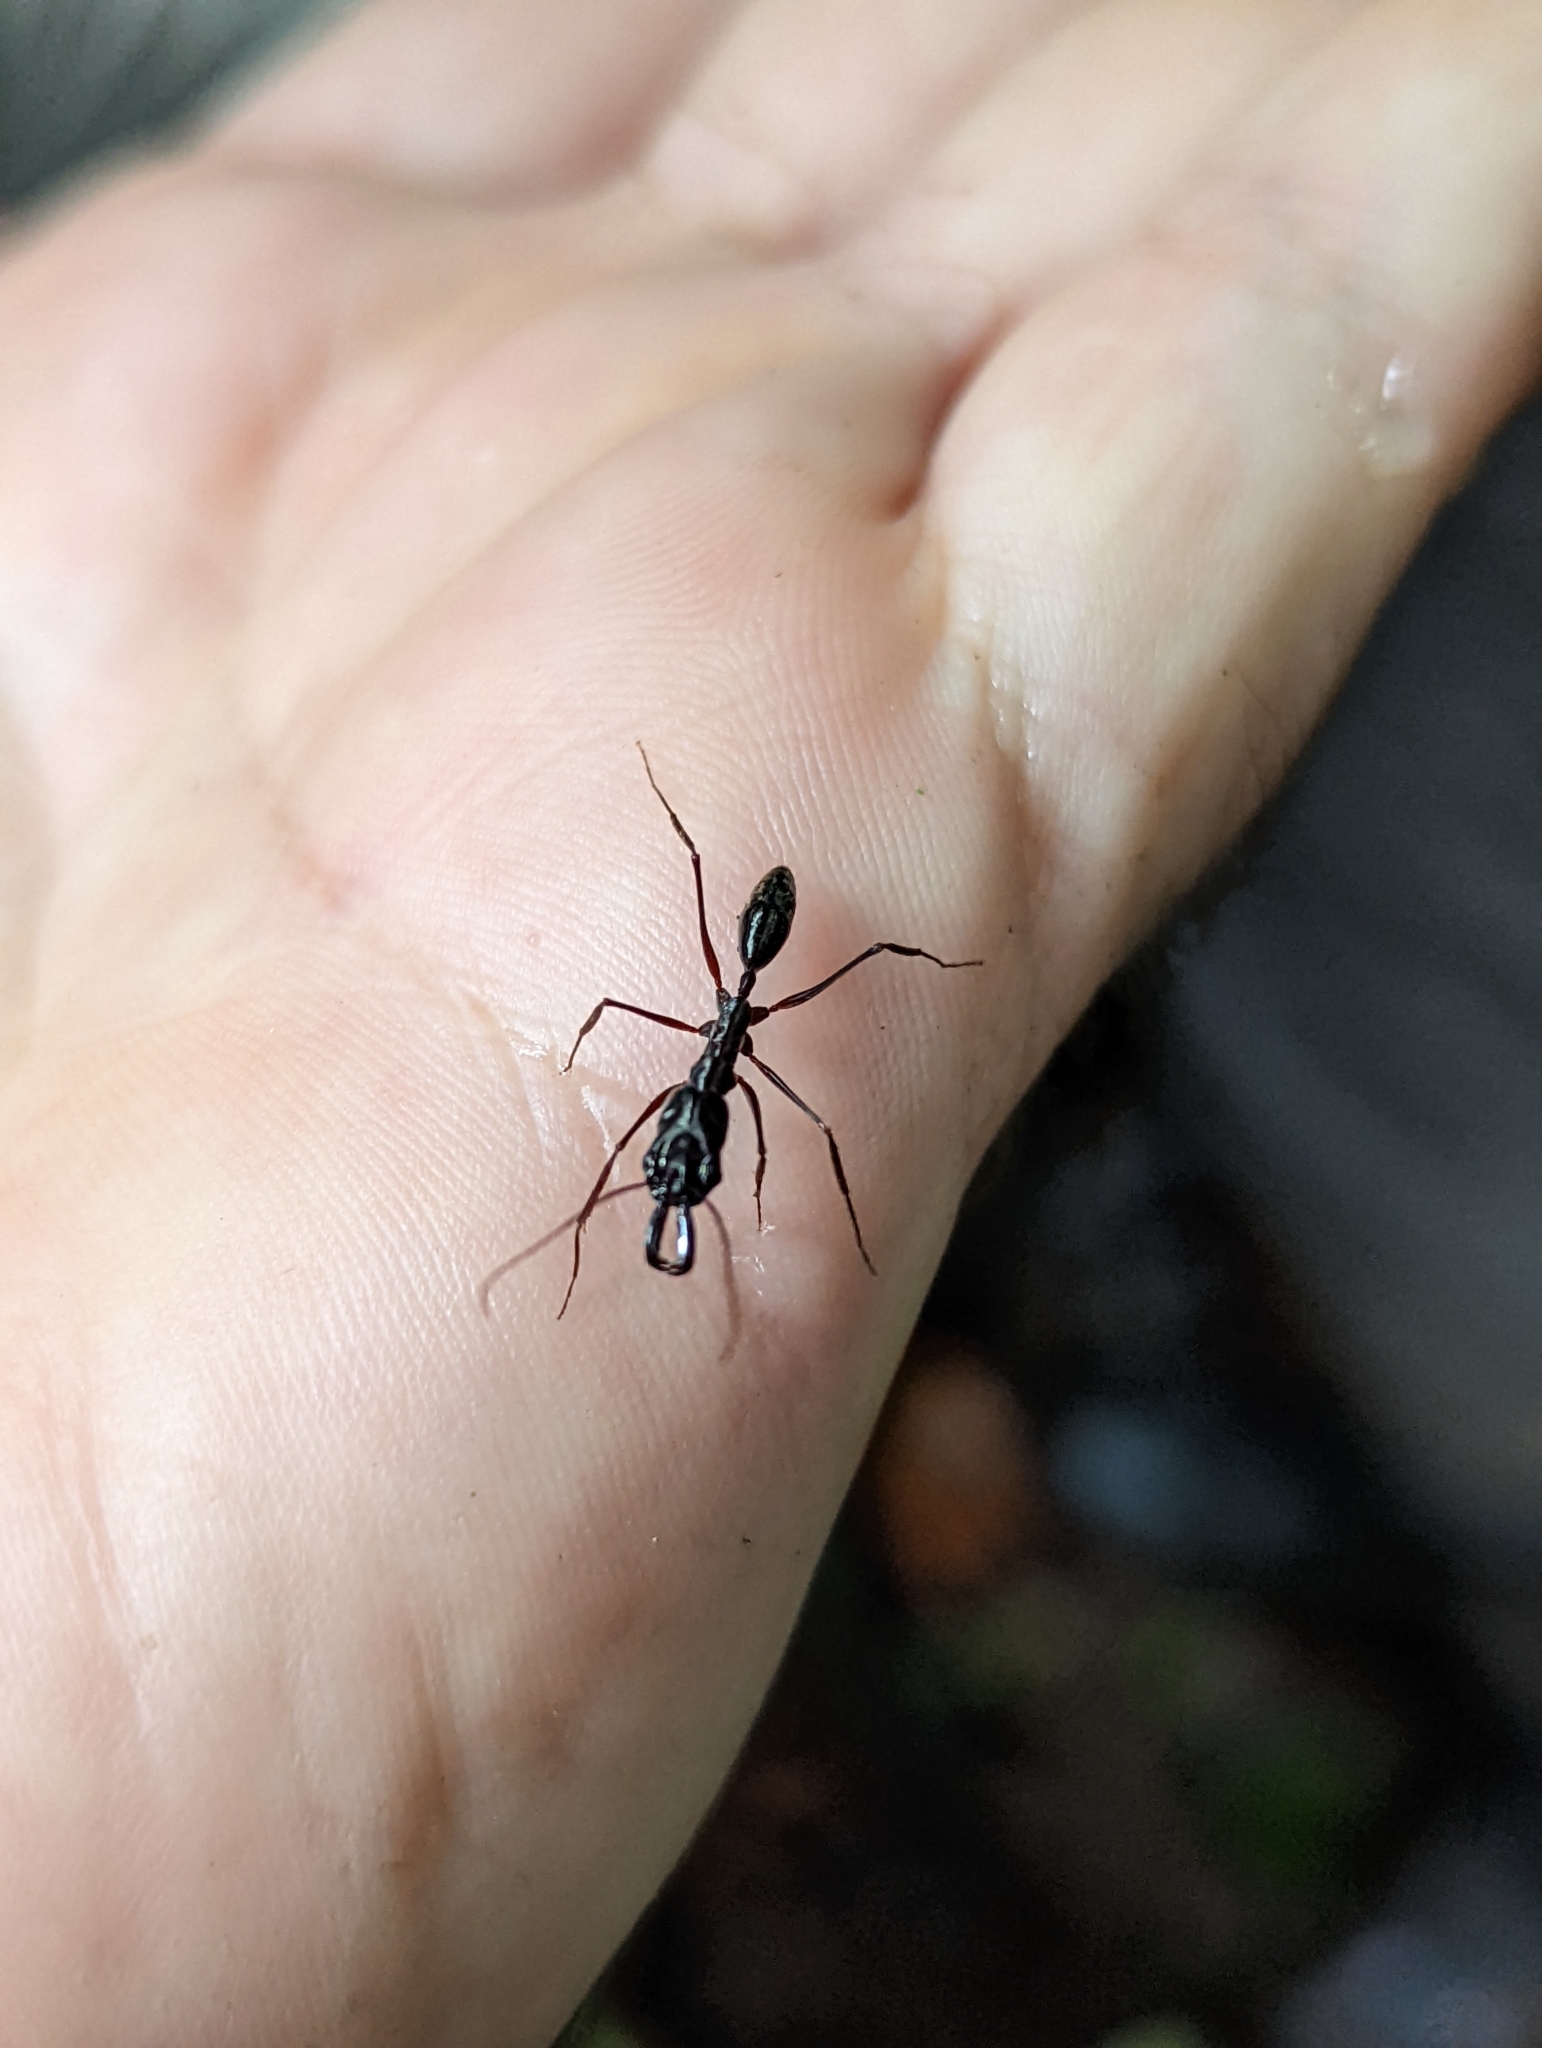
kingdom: Animalia
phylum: Arthropoda
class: Insecta
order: Hymenoptera
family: Formicidae
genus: Odontomachus
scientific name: Odontomachus chelifer
